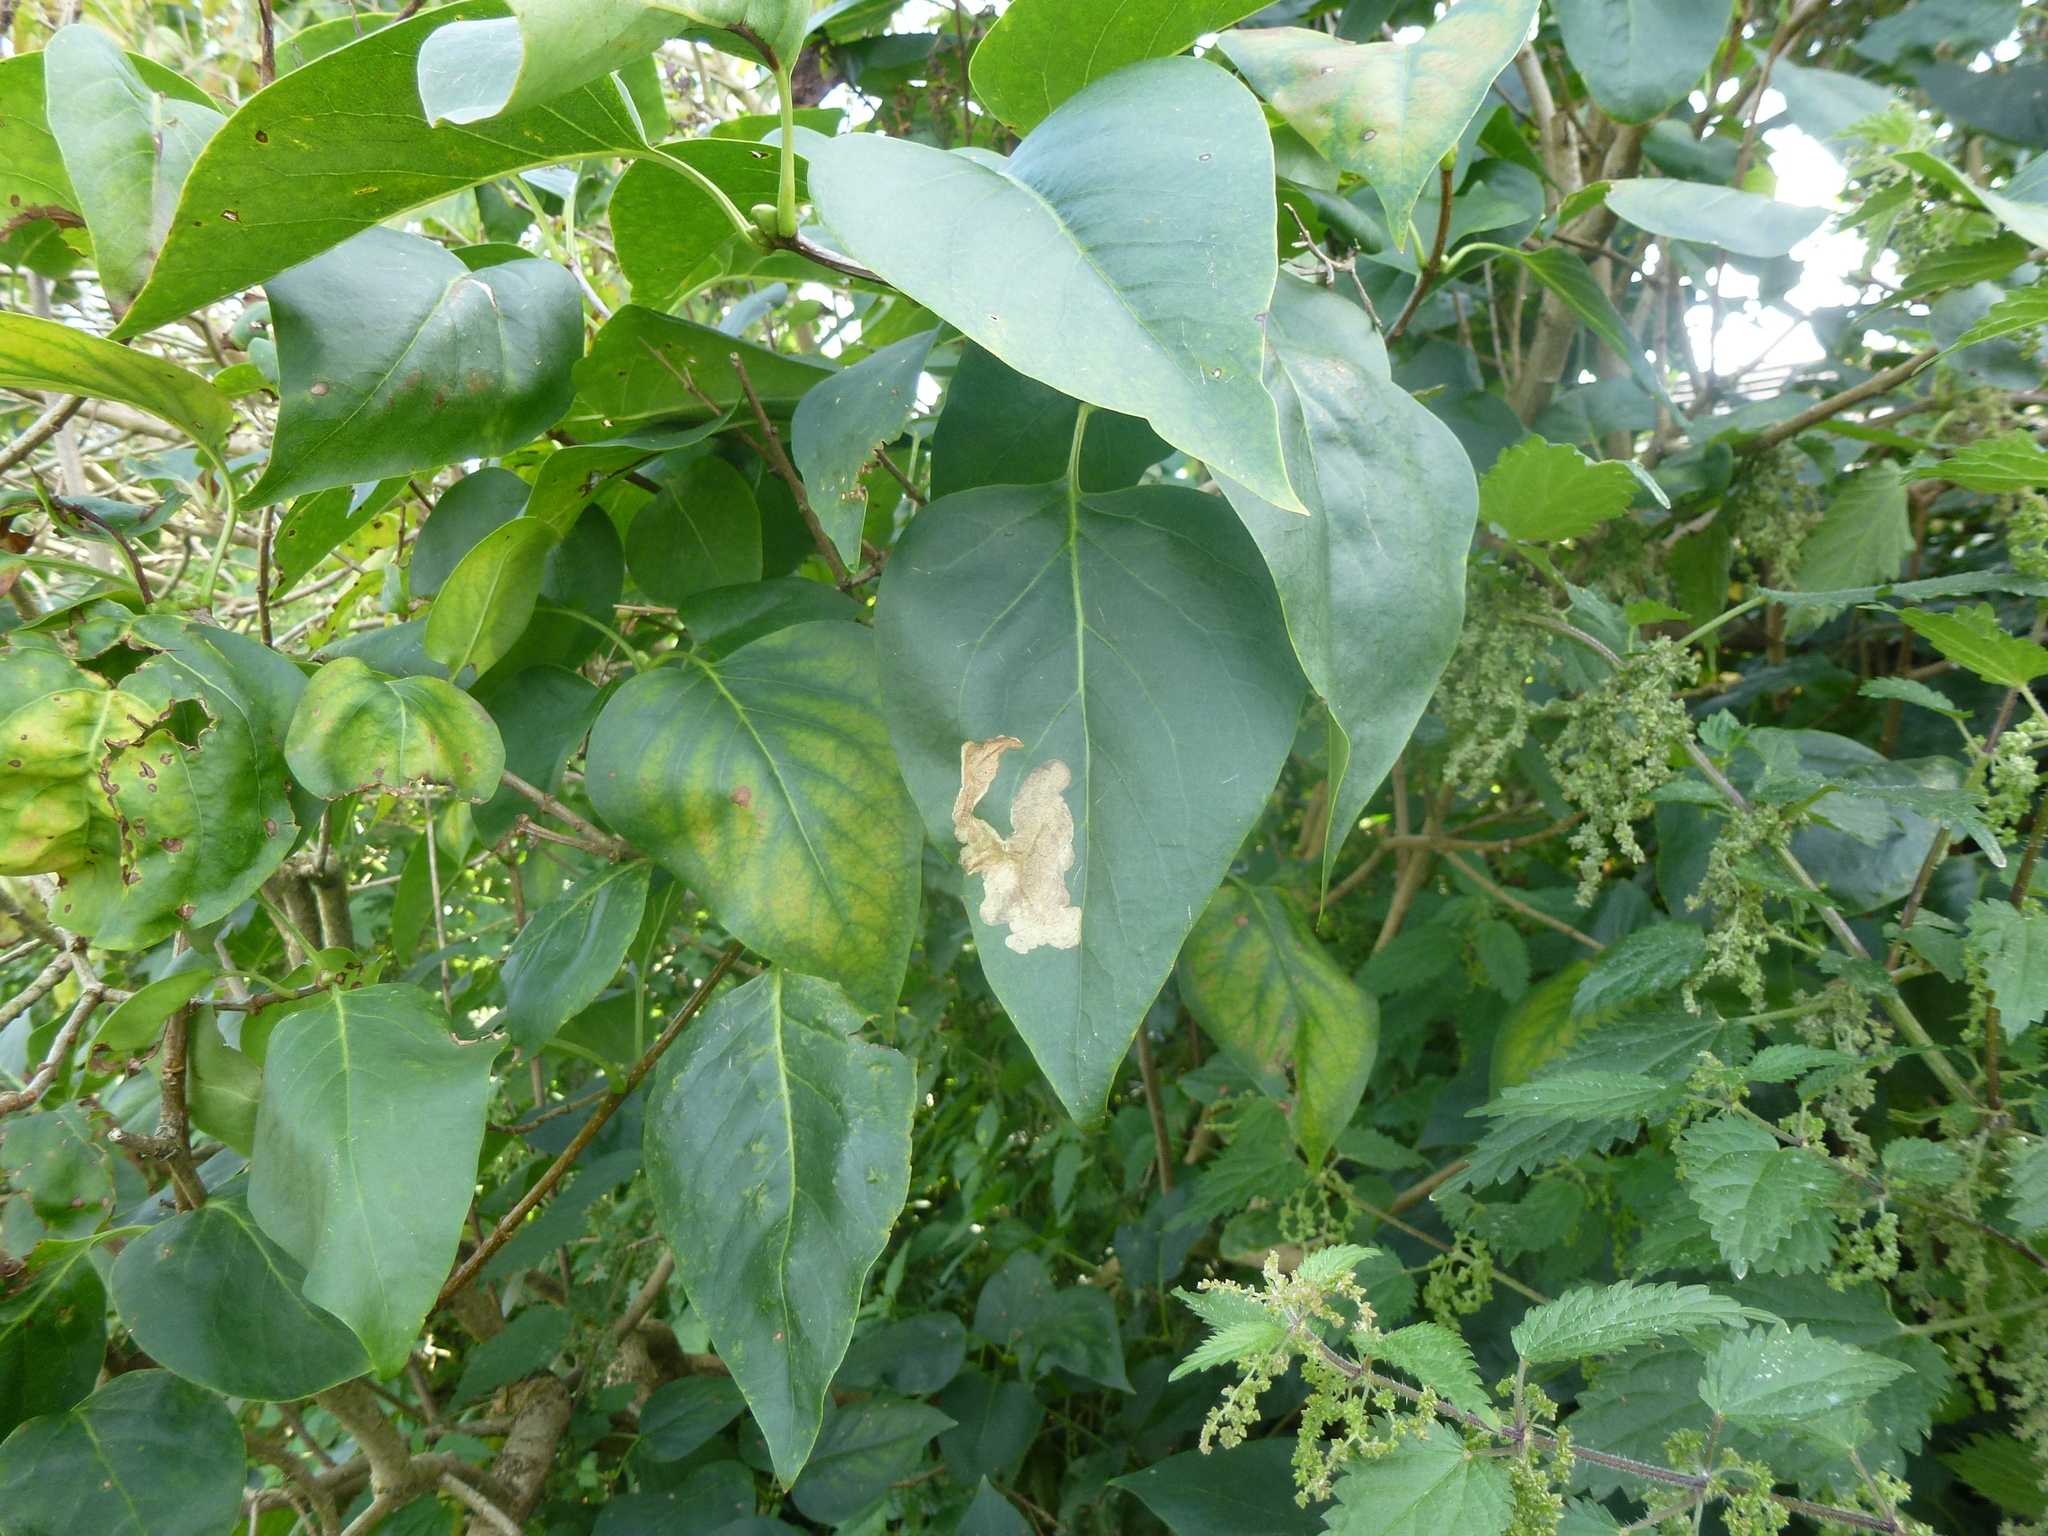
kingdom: Animalia
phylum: Arthropoda
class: Insecta
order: Lepidoptera
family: Gracillariidae
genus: Gracillaria
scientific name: Gracillaria syringella
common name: Common slender
